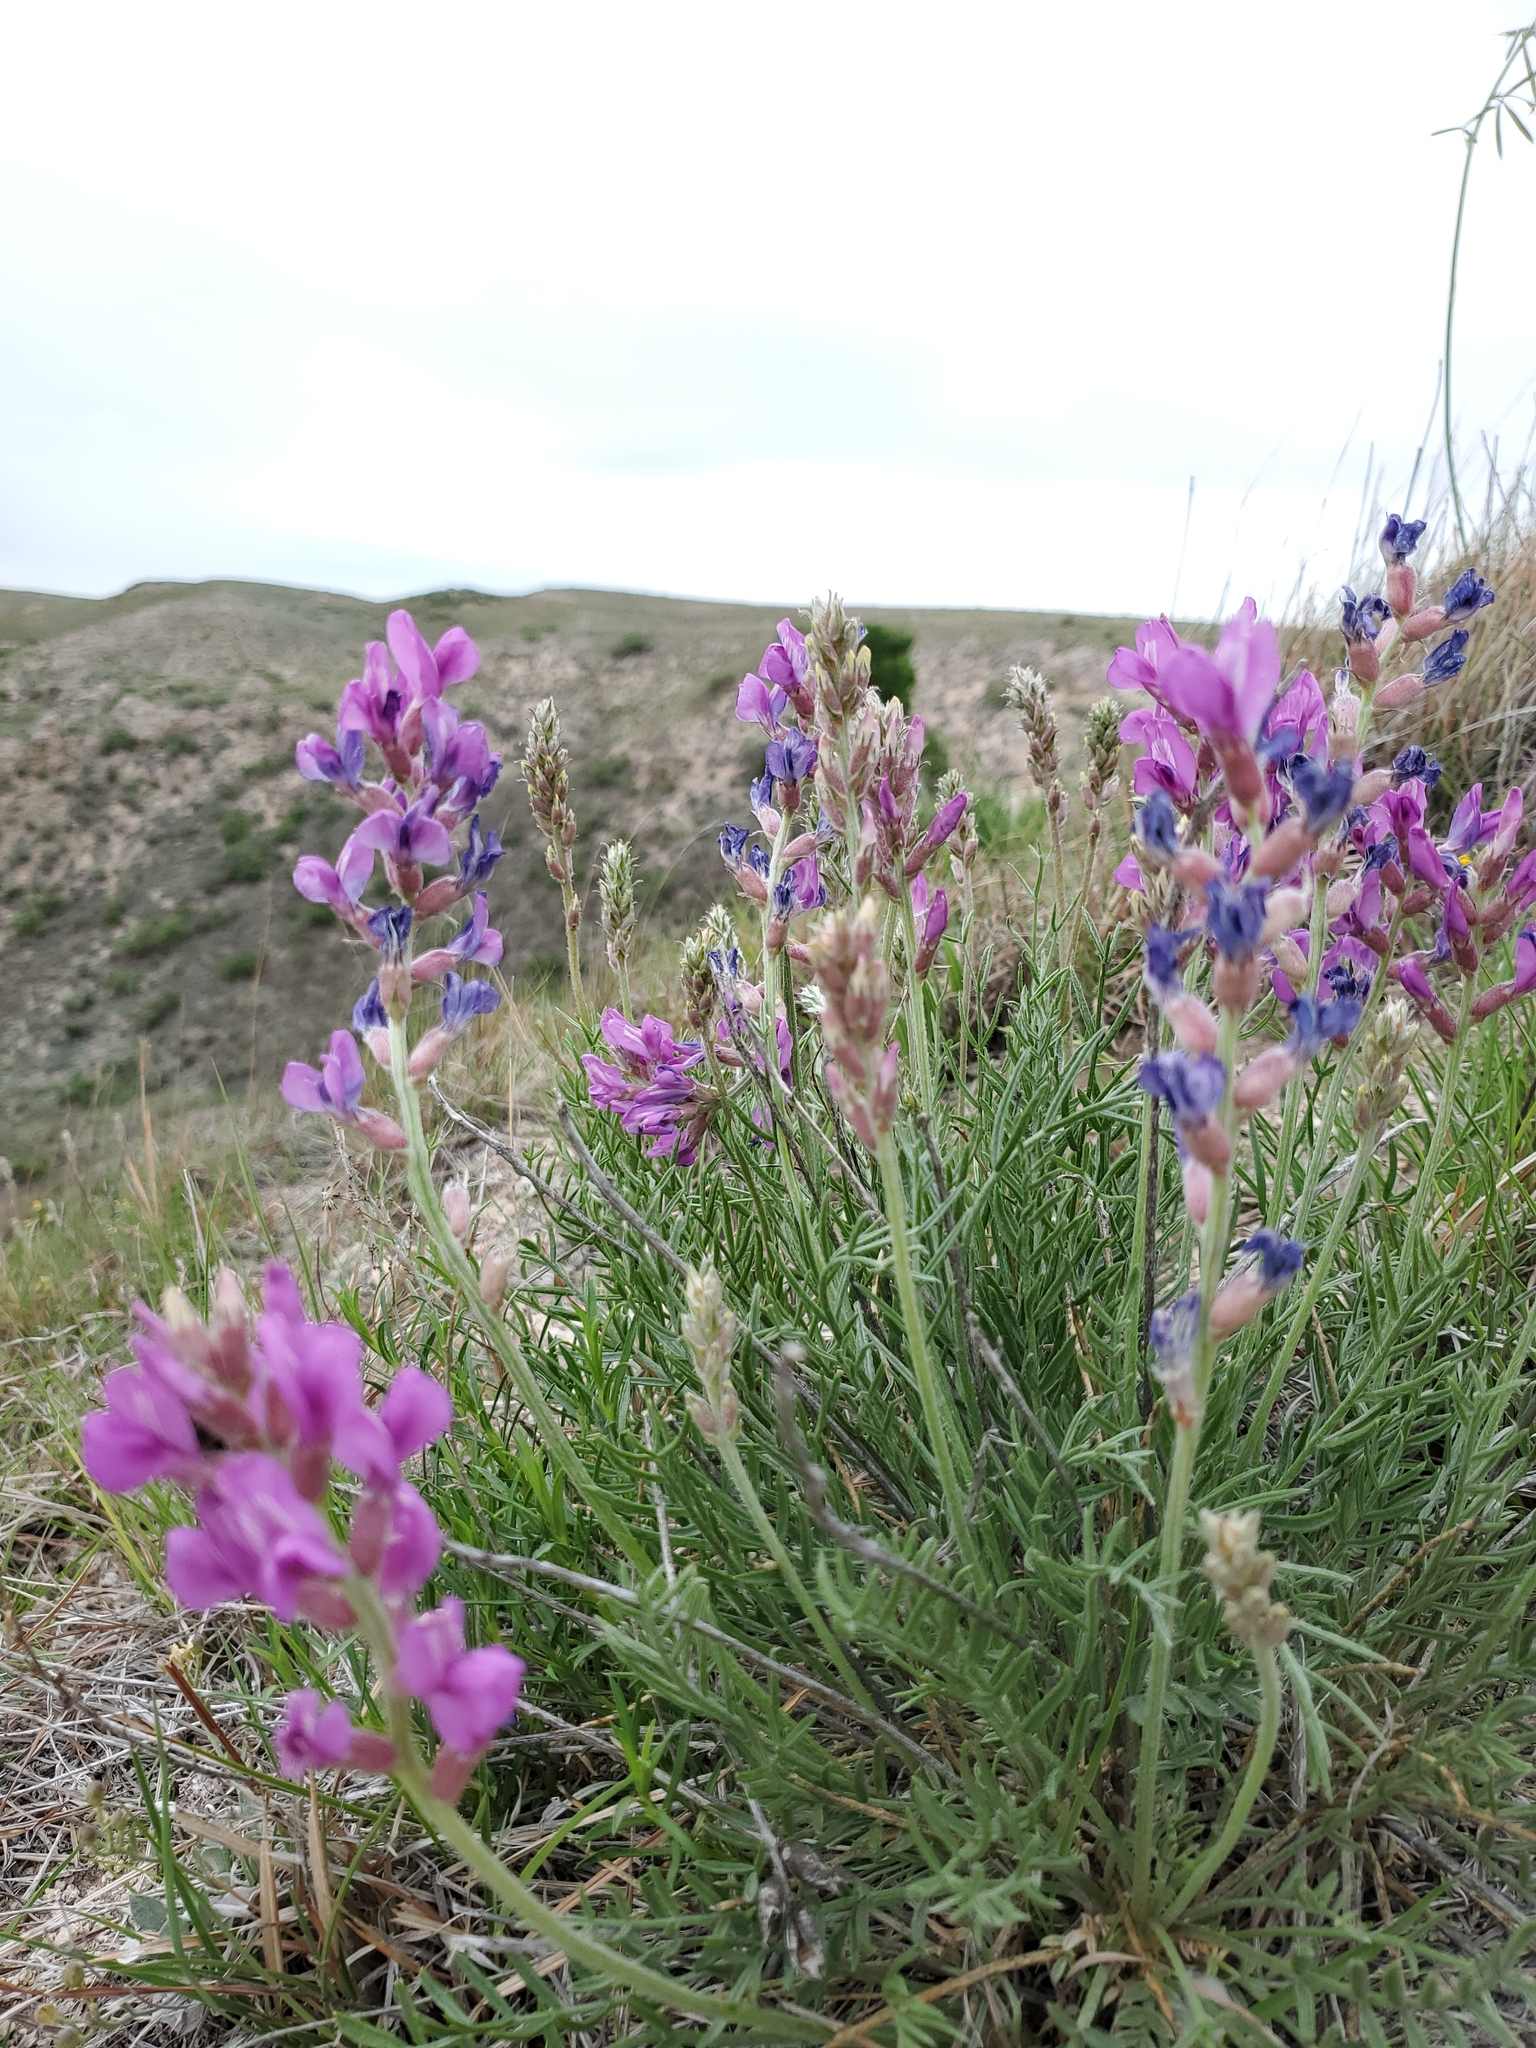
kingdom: Plantae
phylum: Tracheophyta
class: Magnoliopsida
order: Fabales
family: Fabaceae
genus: Oxytropis
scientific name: Oxytropis lambertii
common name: Purple locoweed
